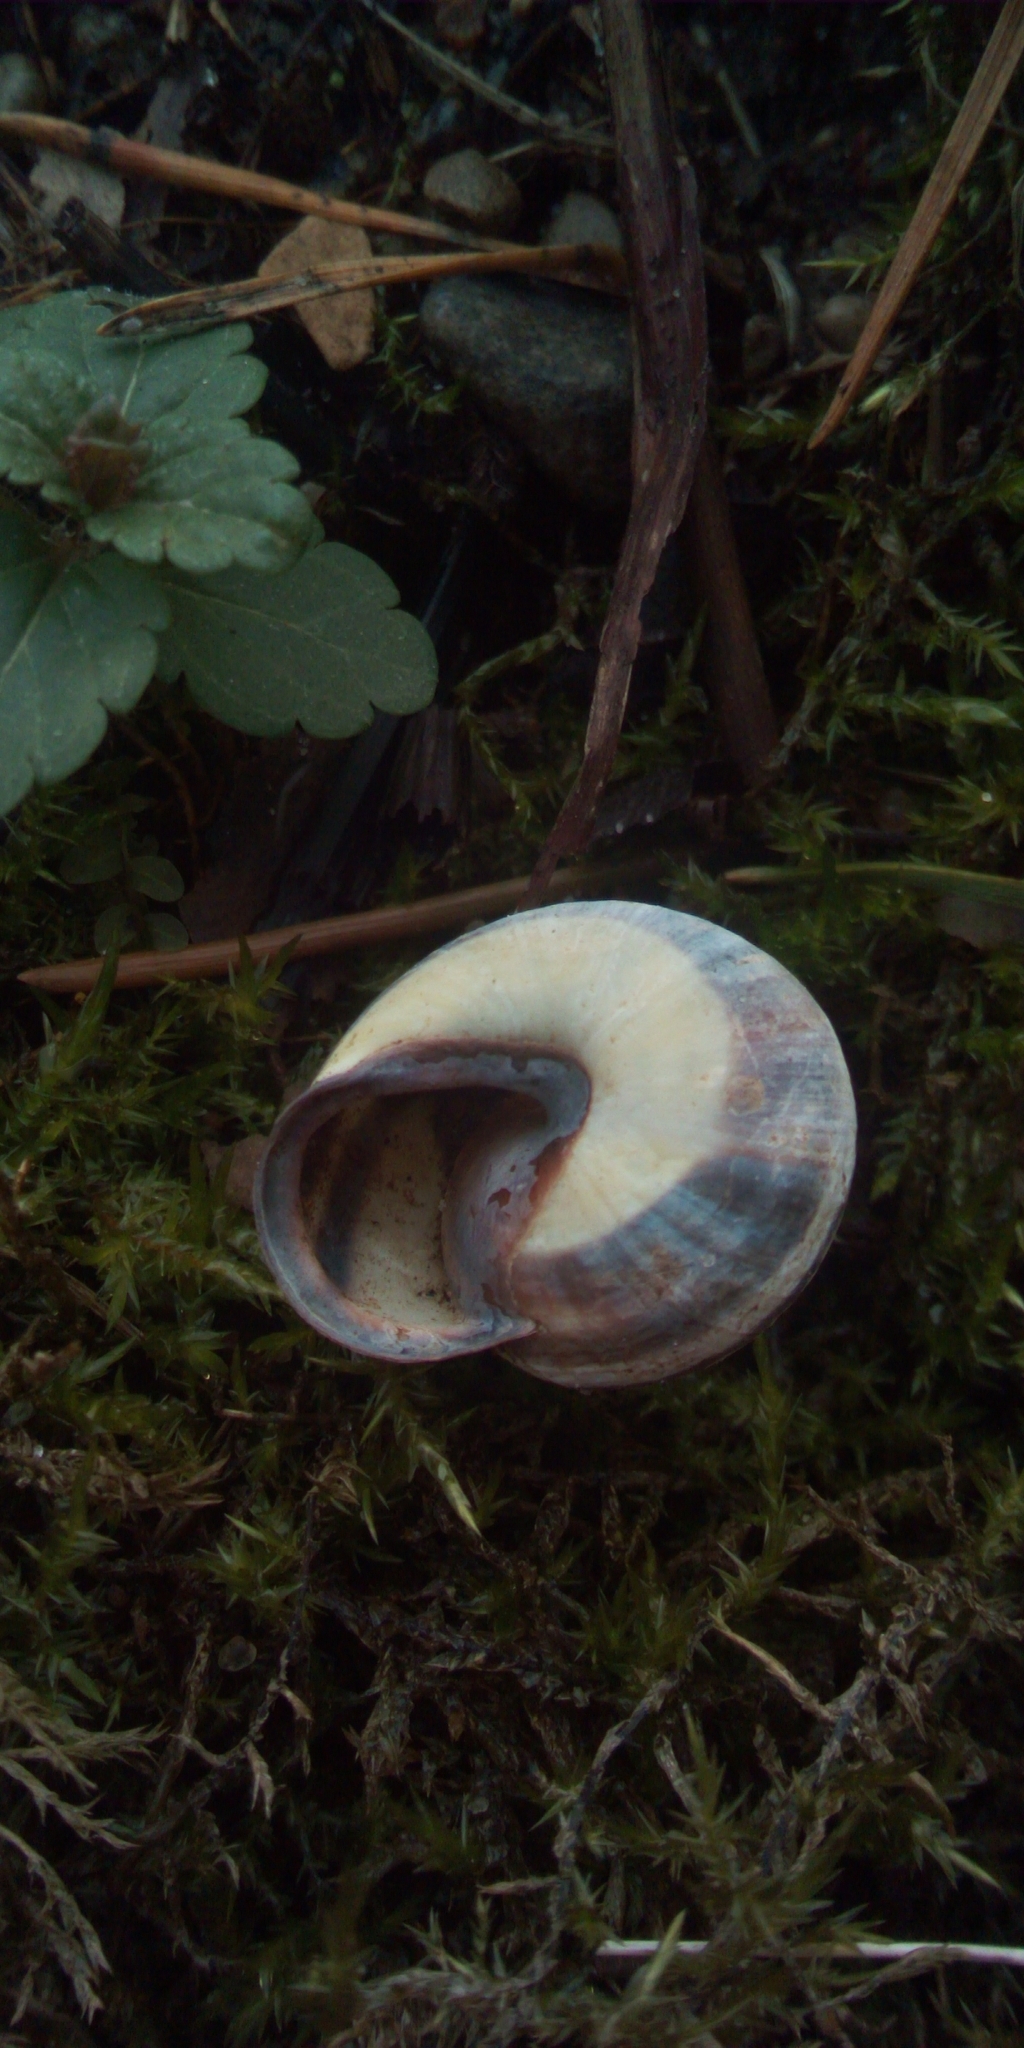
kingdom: Animalia
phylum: Mollusca
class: Gastropoda
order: Stylommatophora
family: Helicidae
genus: Cepaea
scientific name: Cepaea nemoralis
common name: Grovesnail
